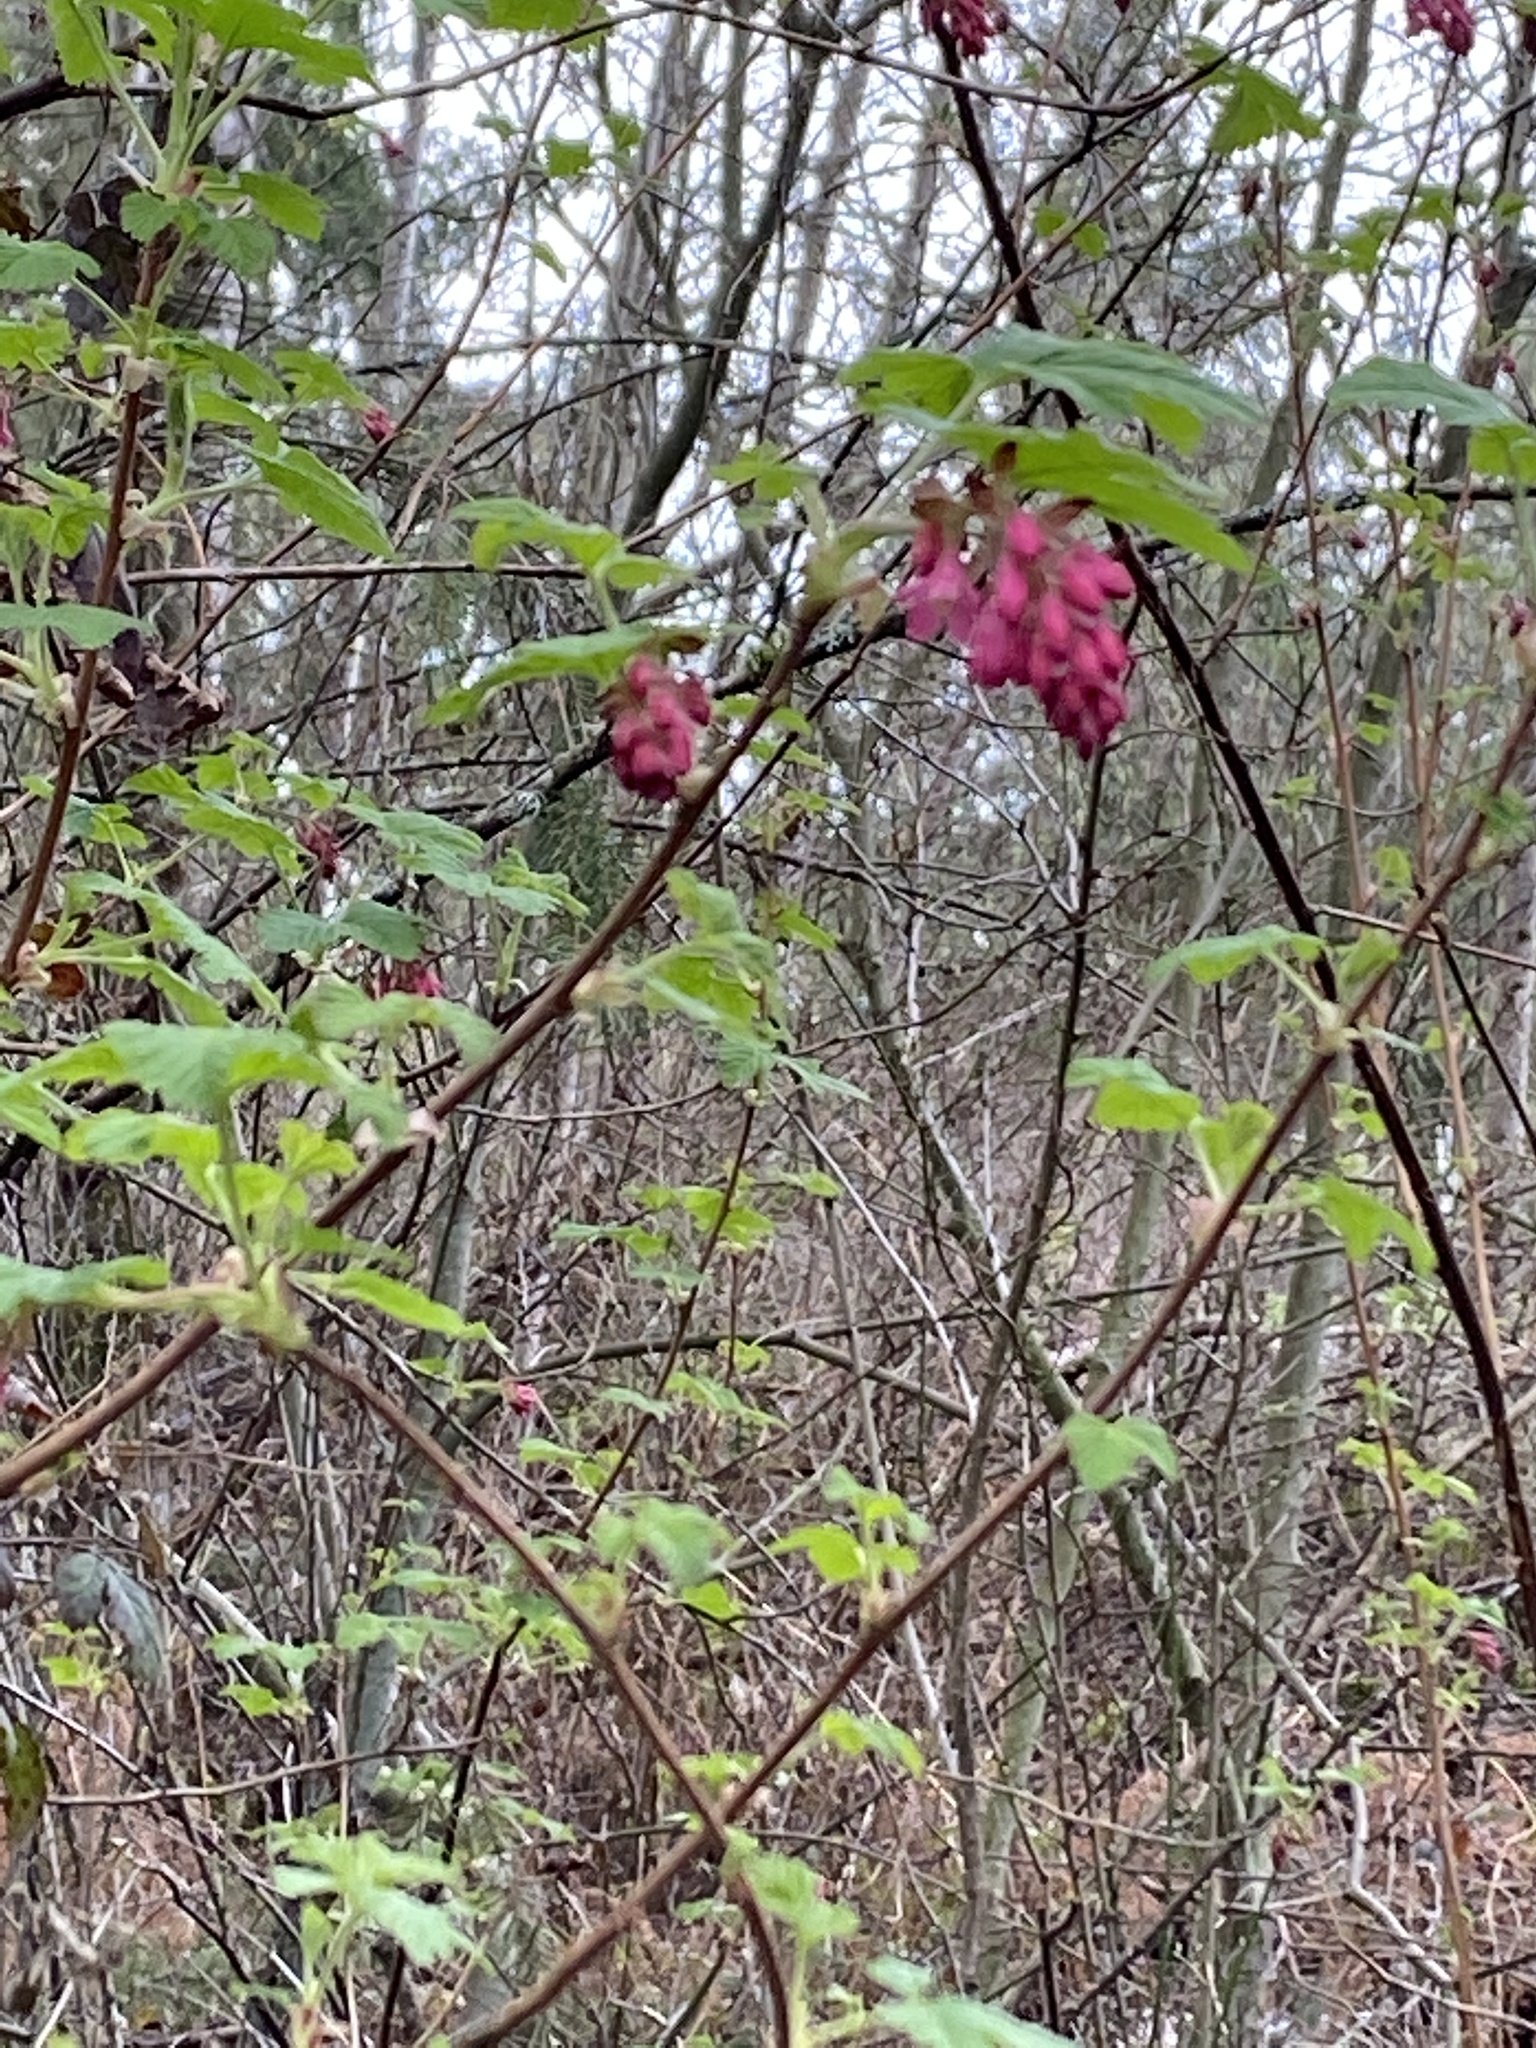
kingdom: Plantae
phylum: Tracheophyta
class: Magnoliopsida
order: Saxifragales
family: Grossulariaceae
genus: Ribes
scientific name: Ribes sanguineum
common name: Flowering currant
